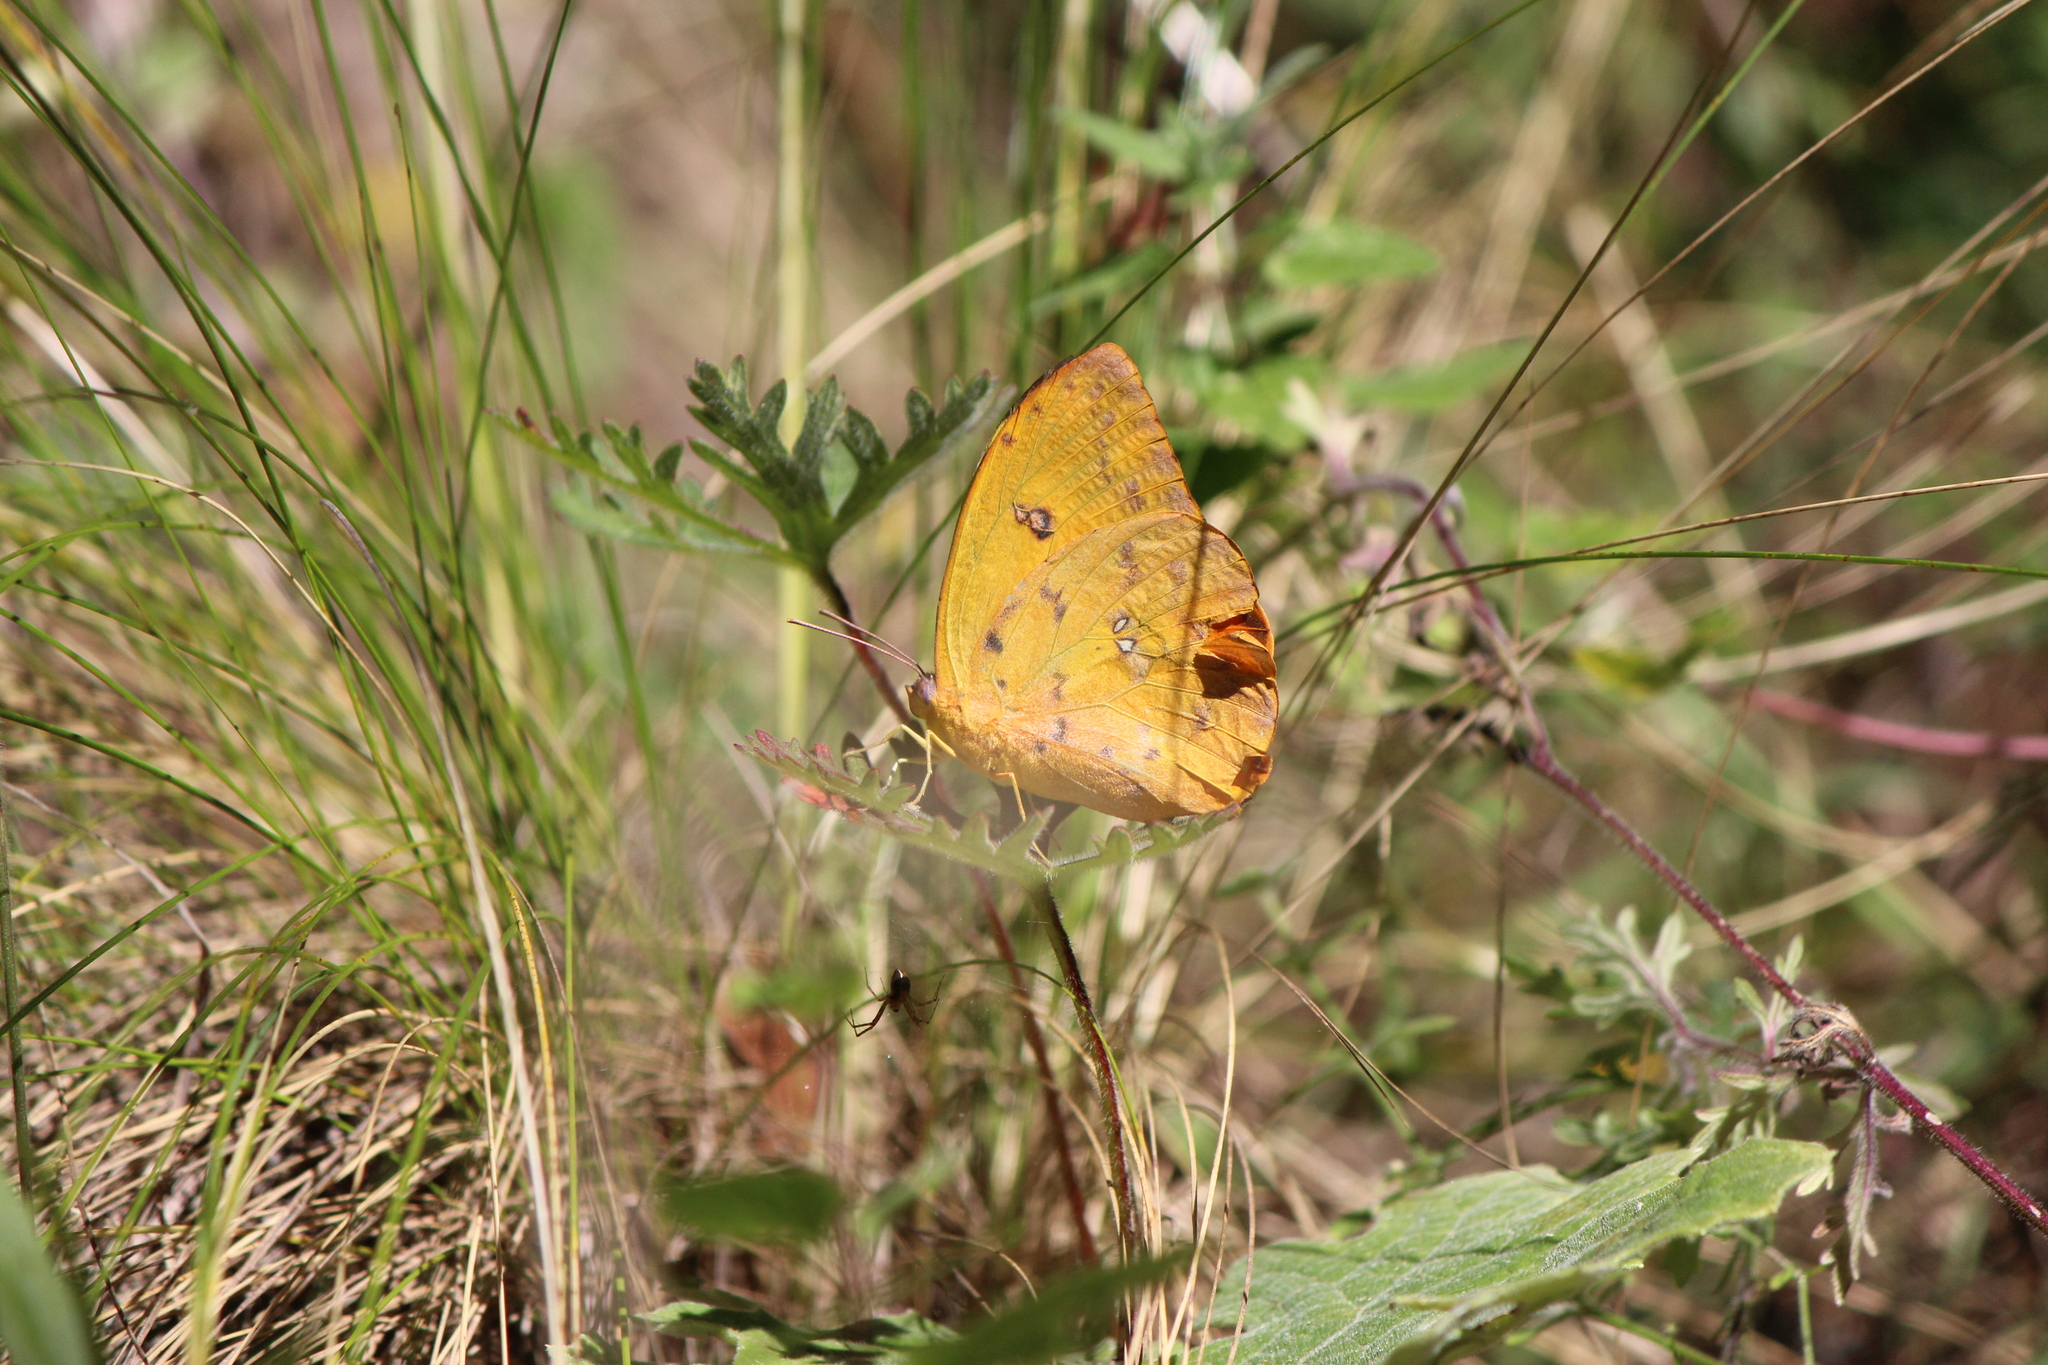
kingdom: Animalia
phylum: Arthropoda
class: Insecta
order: Lepidoptera
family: Pieridae
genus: Phoebis
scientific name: Phoebis philea
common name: Orange-barred giant sulphur
